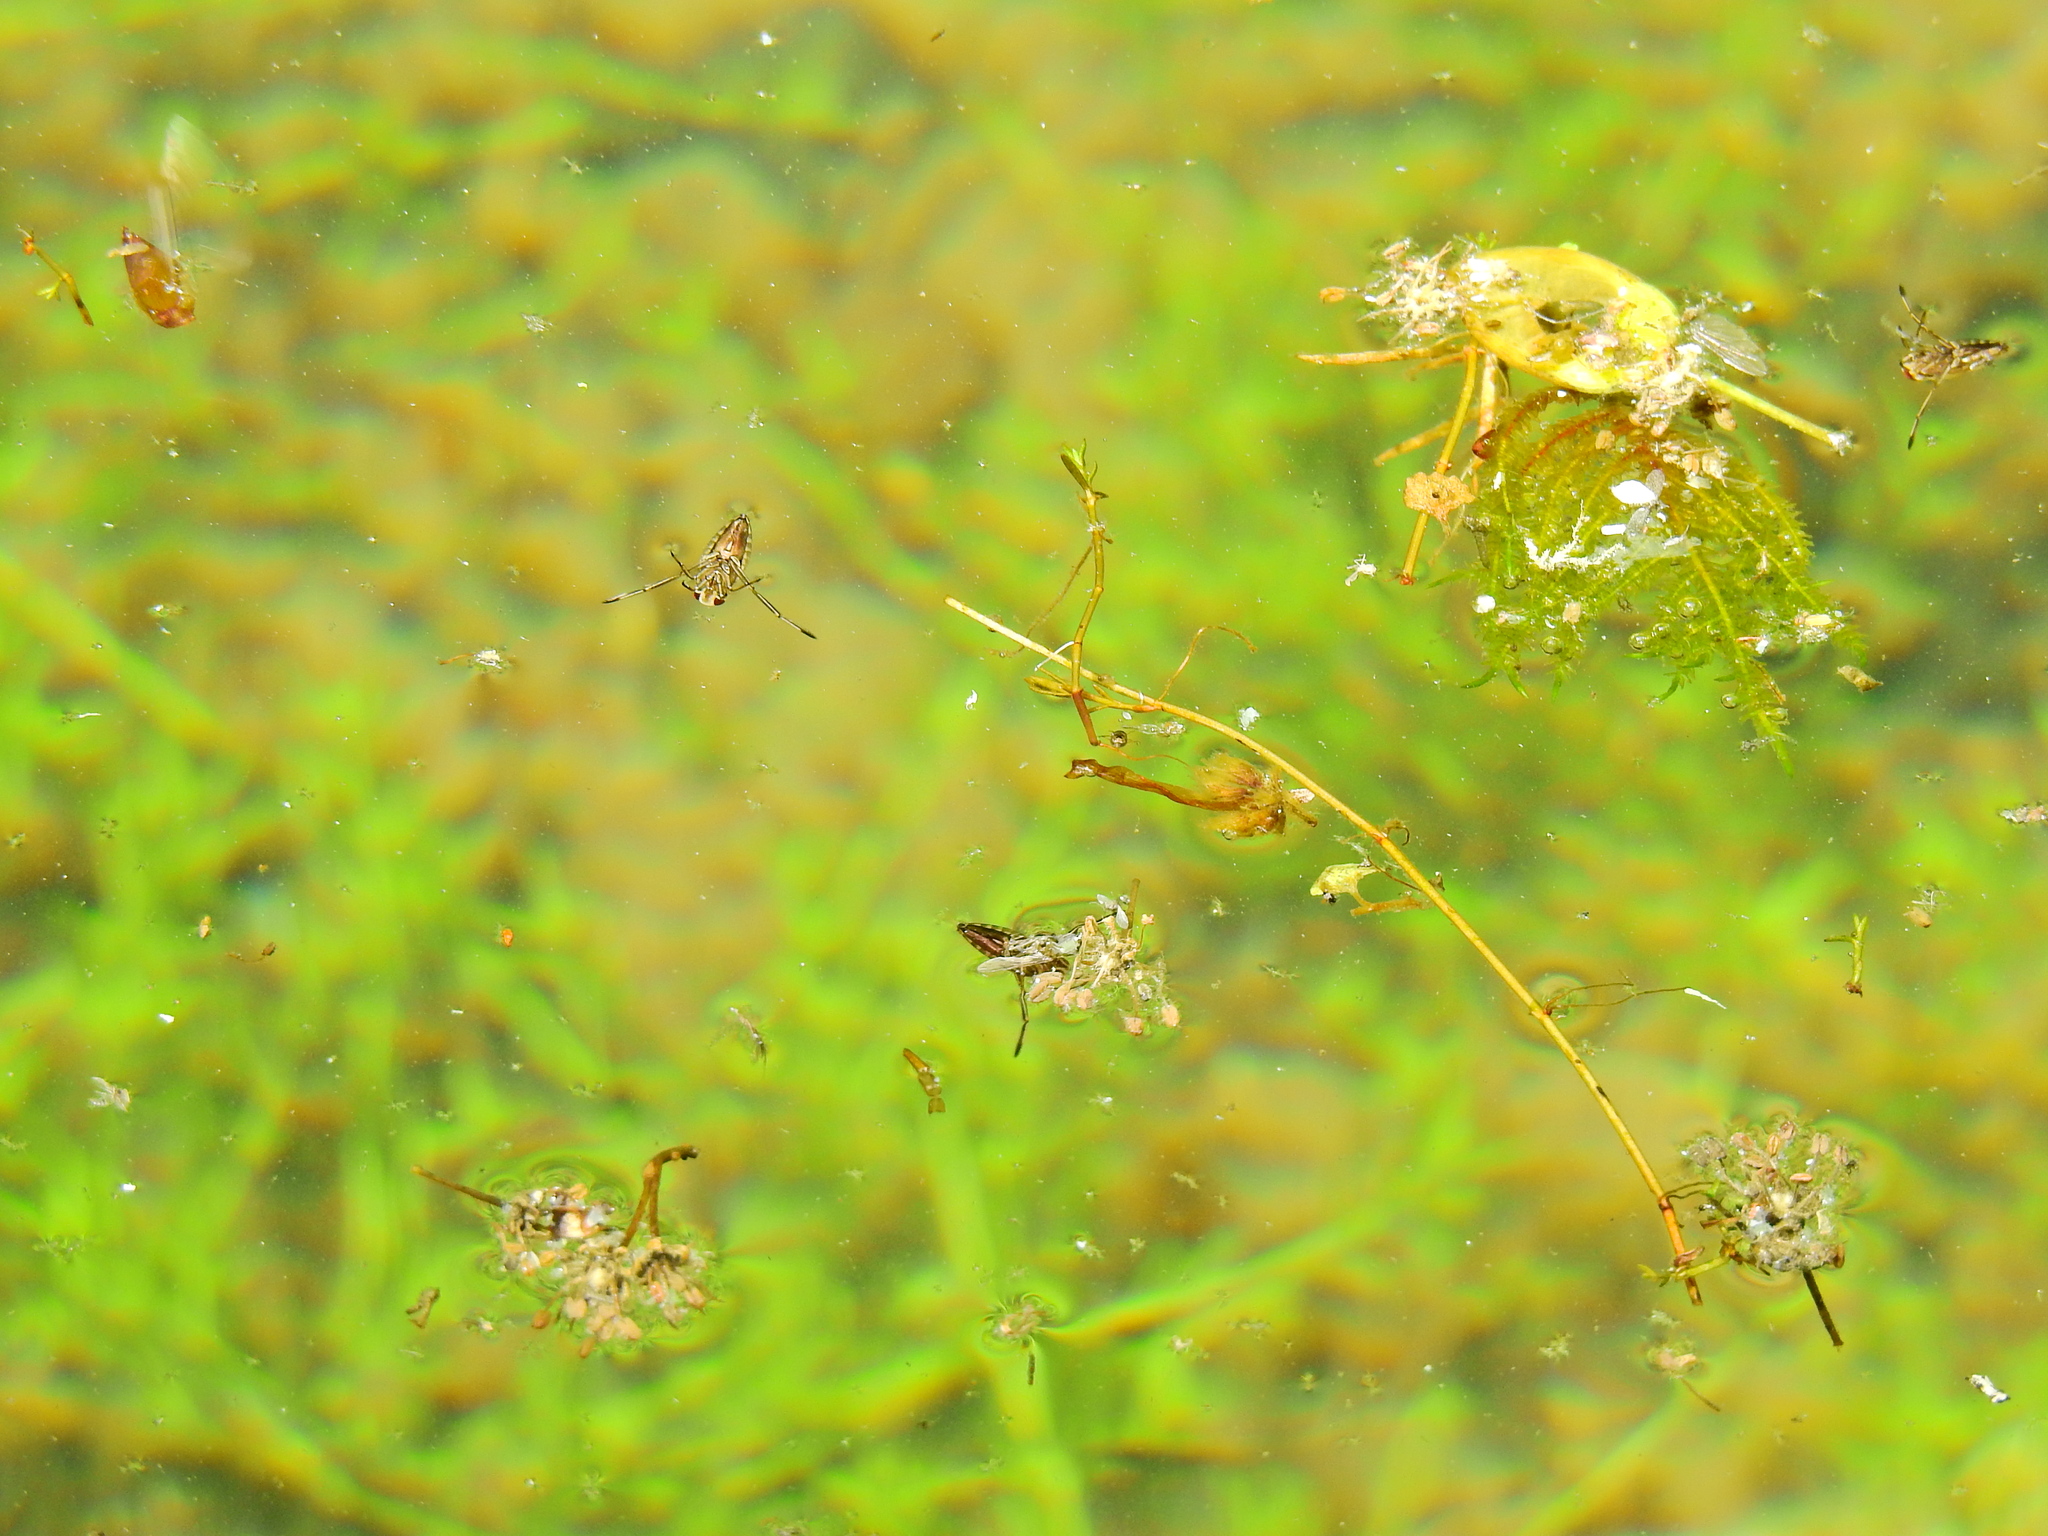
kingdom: Animalia
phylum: Arthropoda
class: Insecta
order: Hemiptera
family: Notonectidae
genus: Notonecta
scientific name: Notonecta
